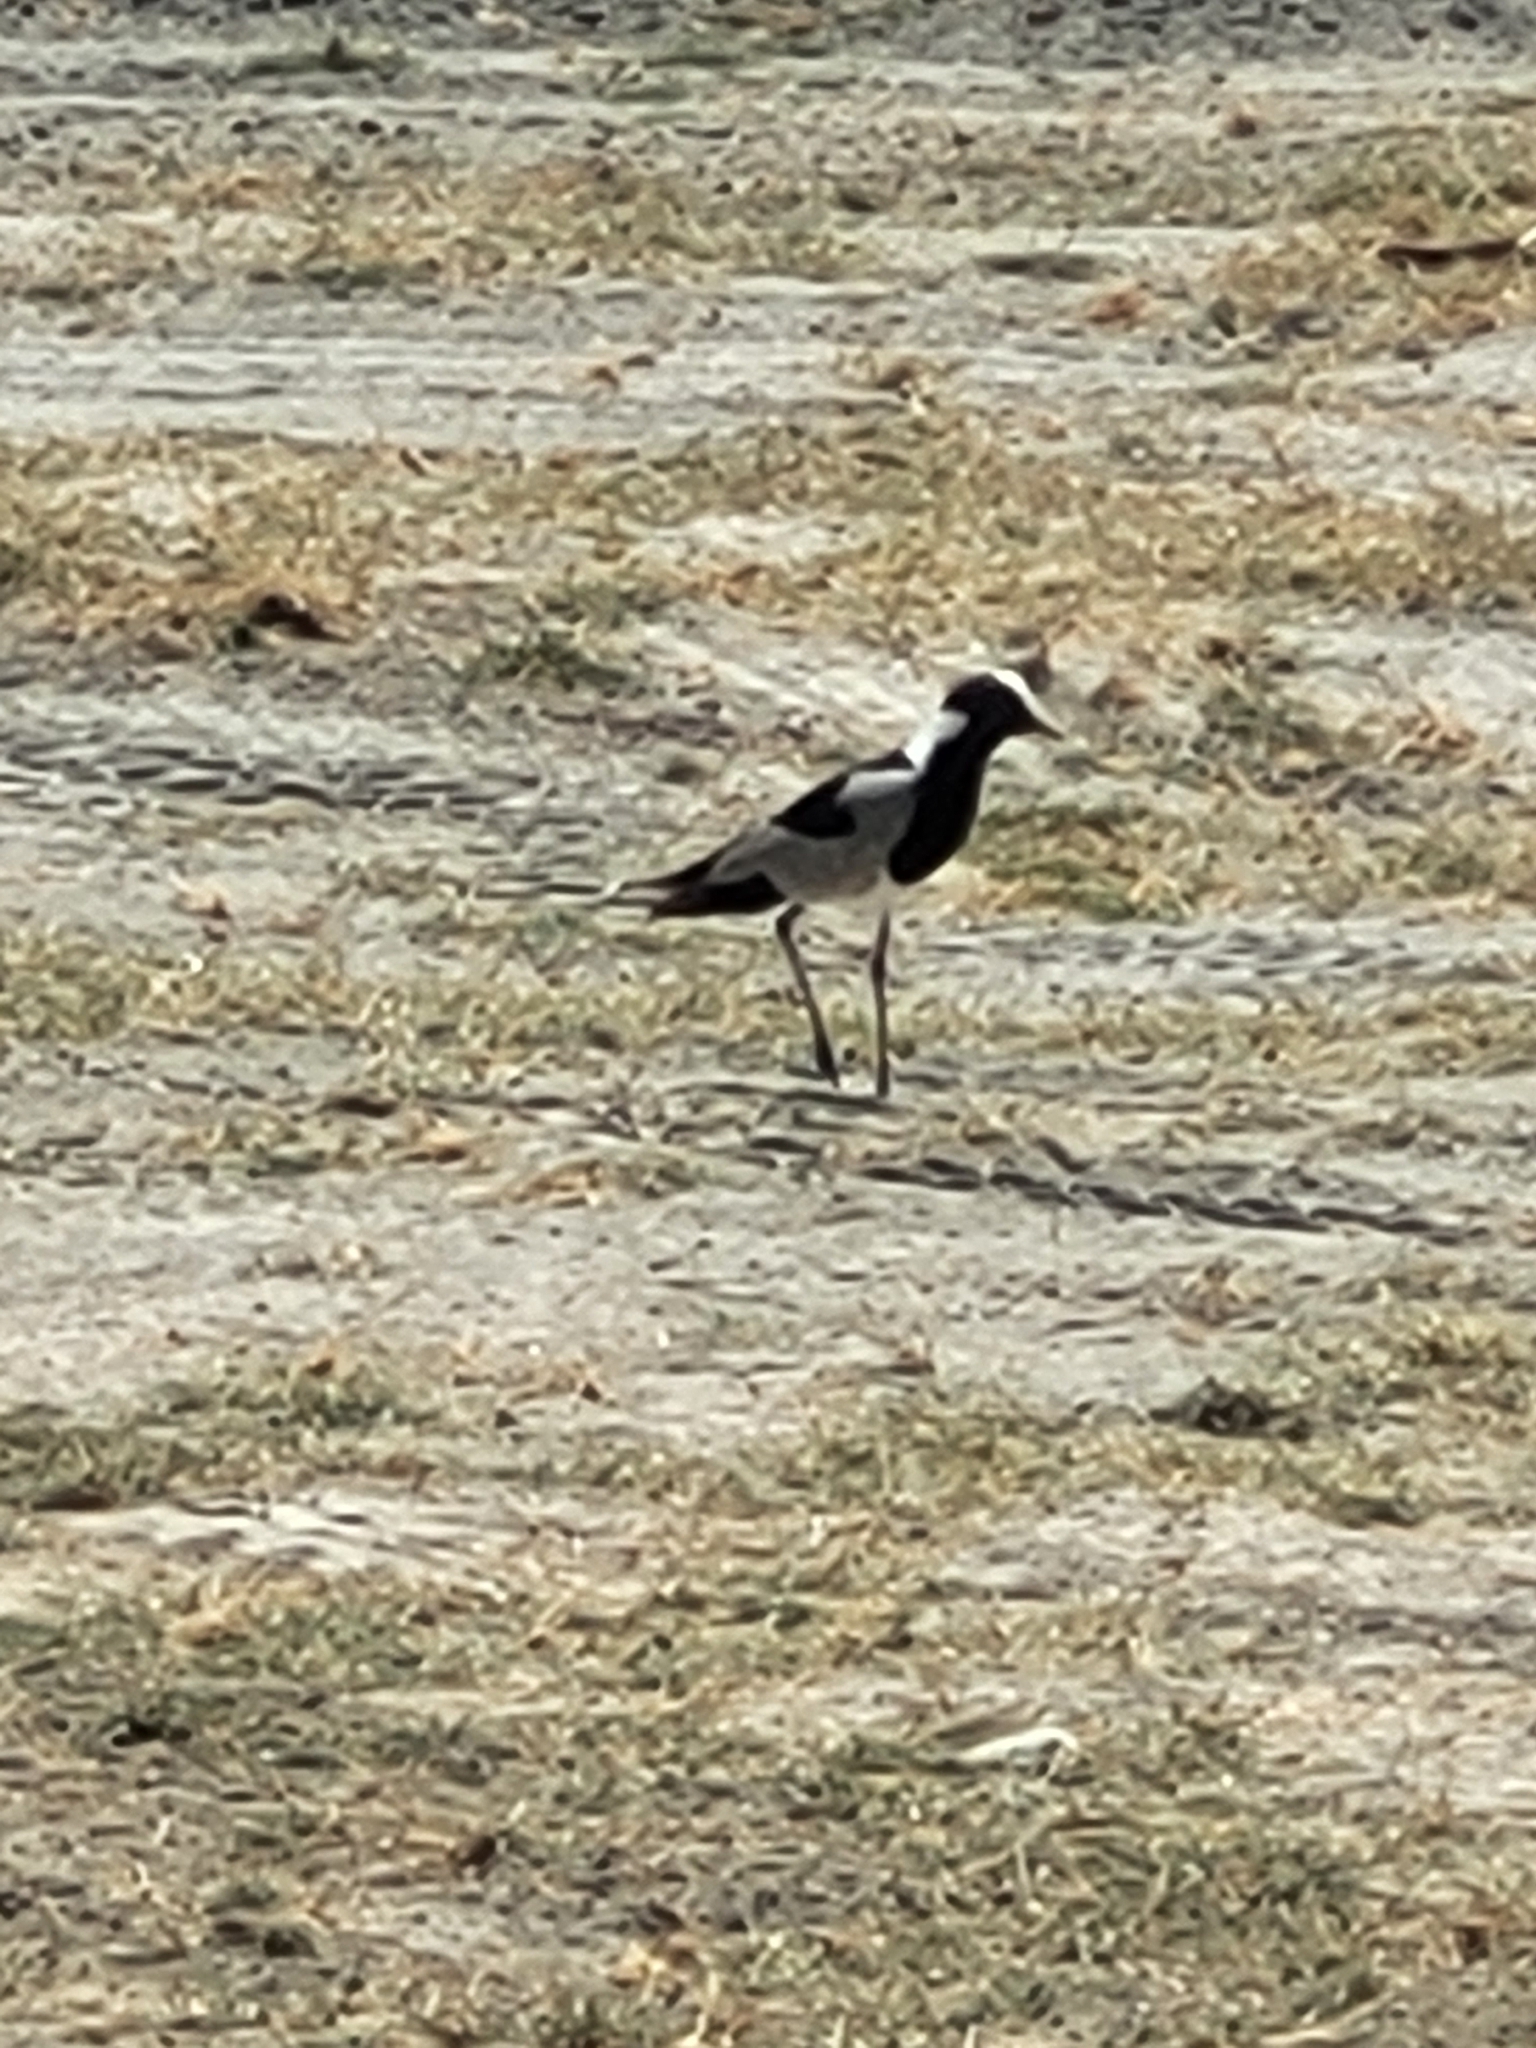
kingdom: Animalia
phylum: Chordata
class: Aves
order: Charadriiformes
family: Charadriidae
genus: Vanellus
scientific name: Vanellus armatus
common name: Blacksmith lapwing
